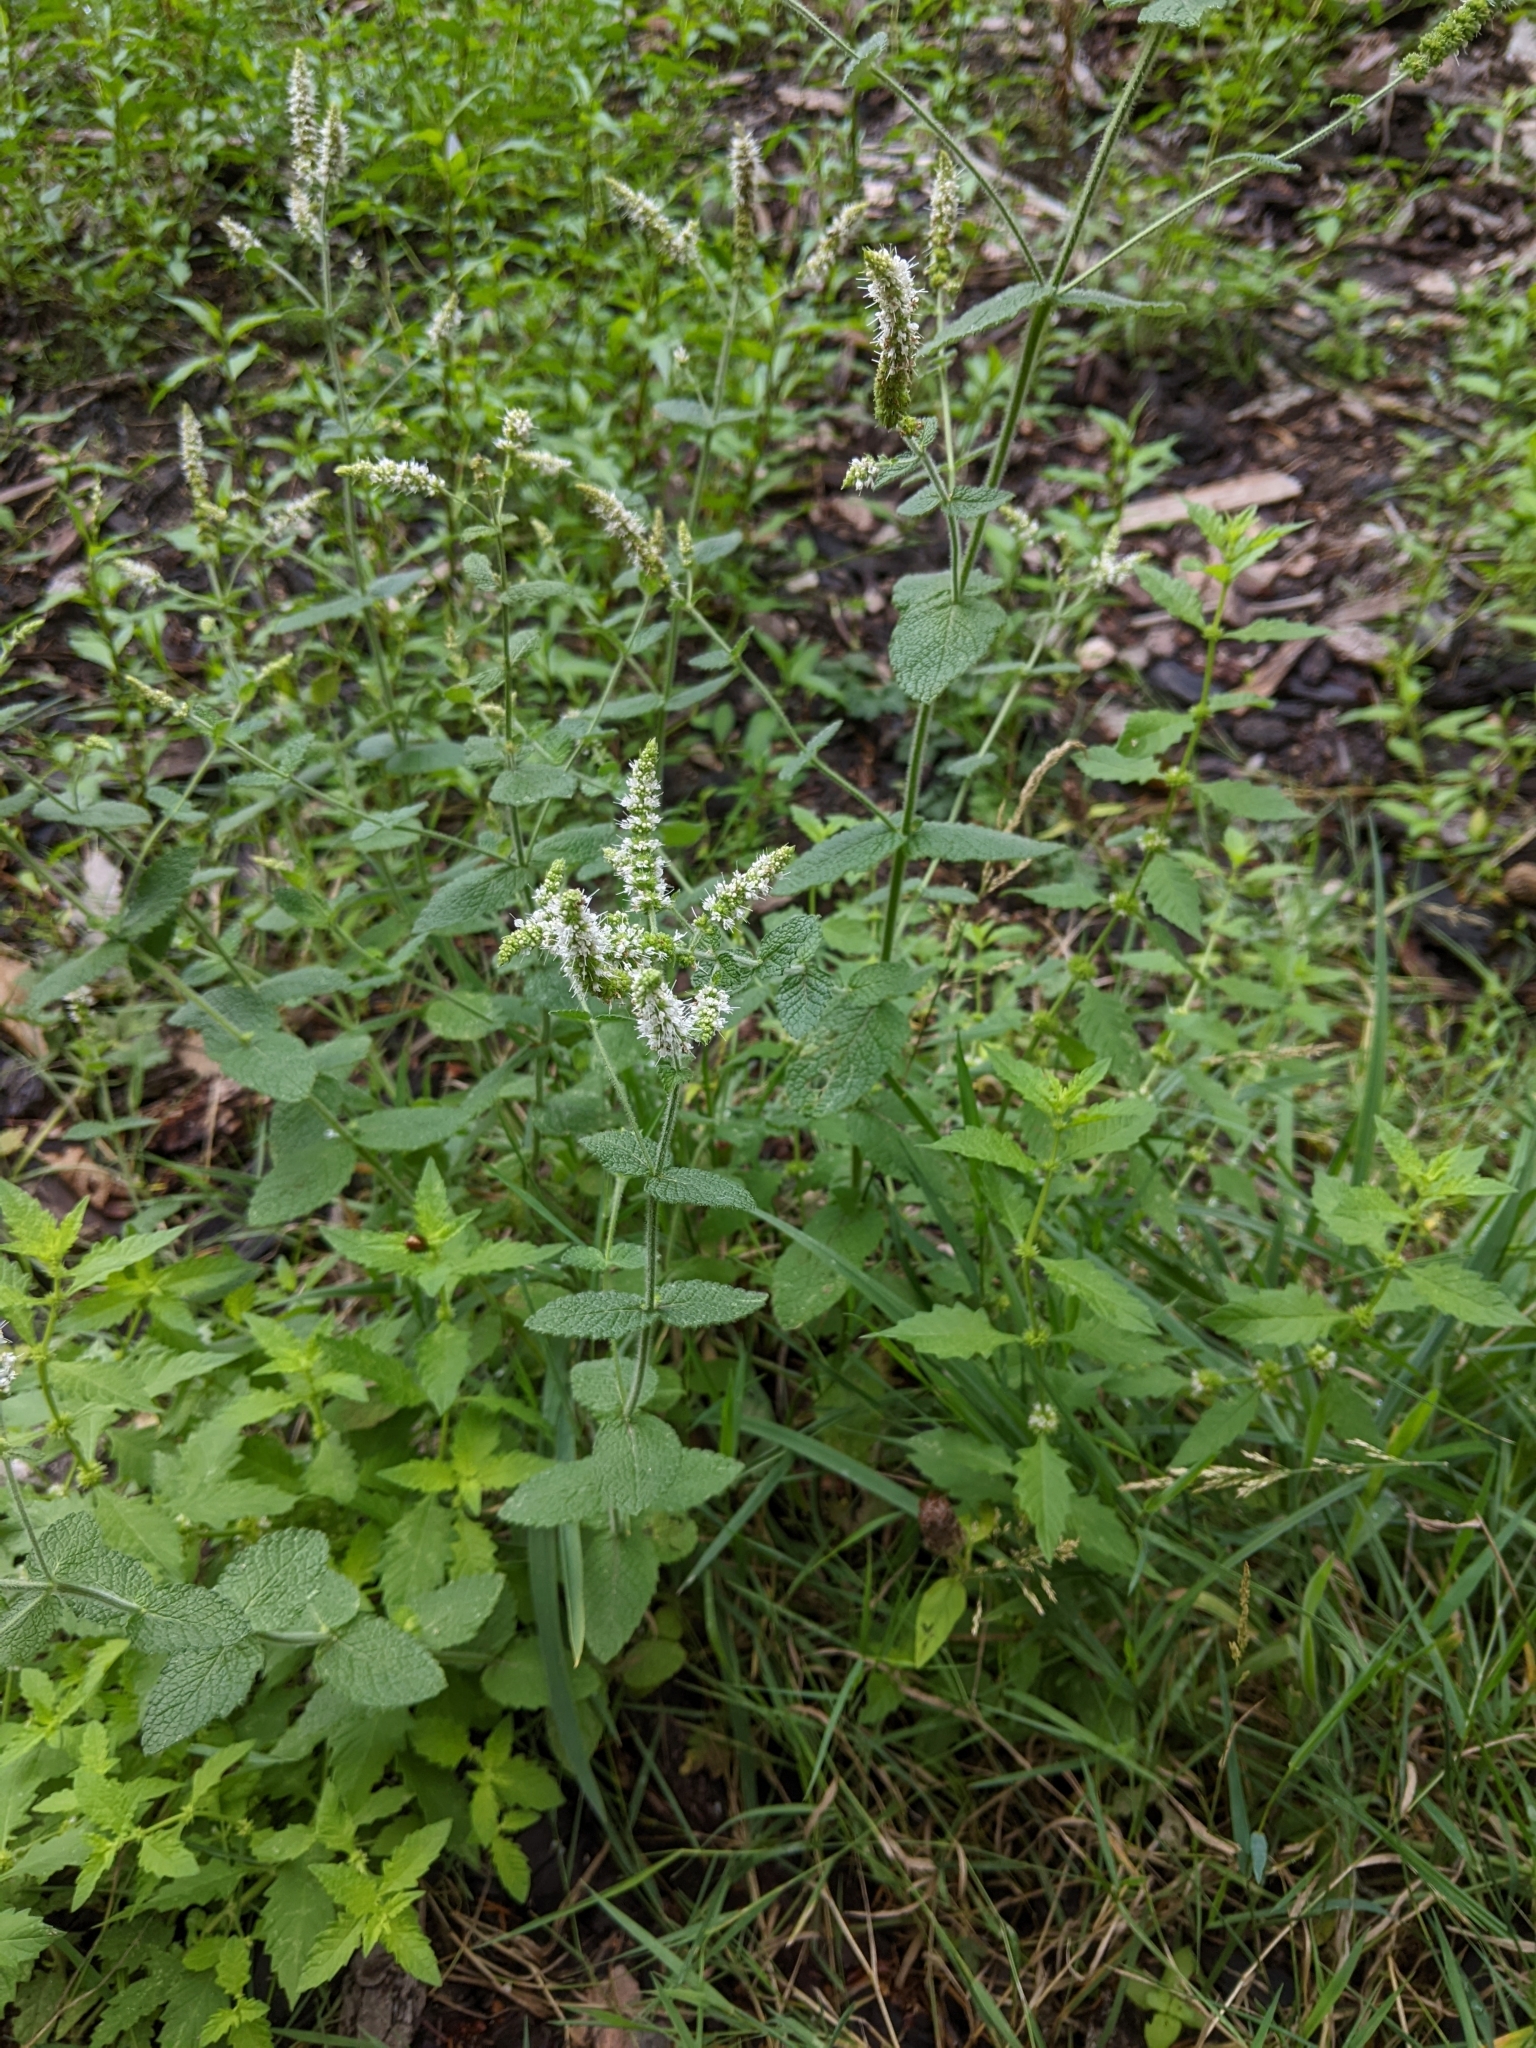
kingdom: Plantae
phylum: Tracheophyta
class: Magnoliopsida
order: Lamiales
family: Lamiaceae
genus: Mentha
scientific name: Mentha suaveolens
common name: Apple mint
